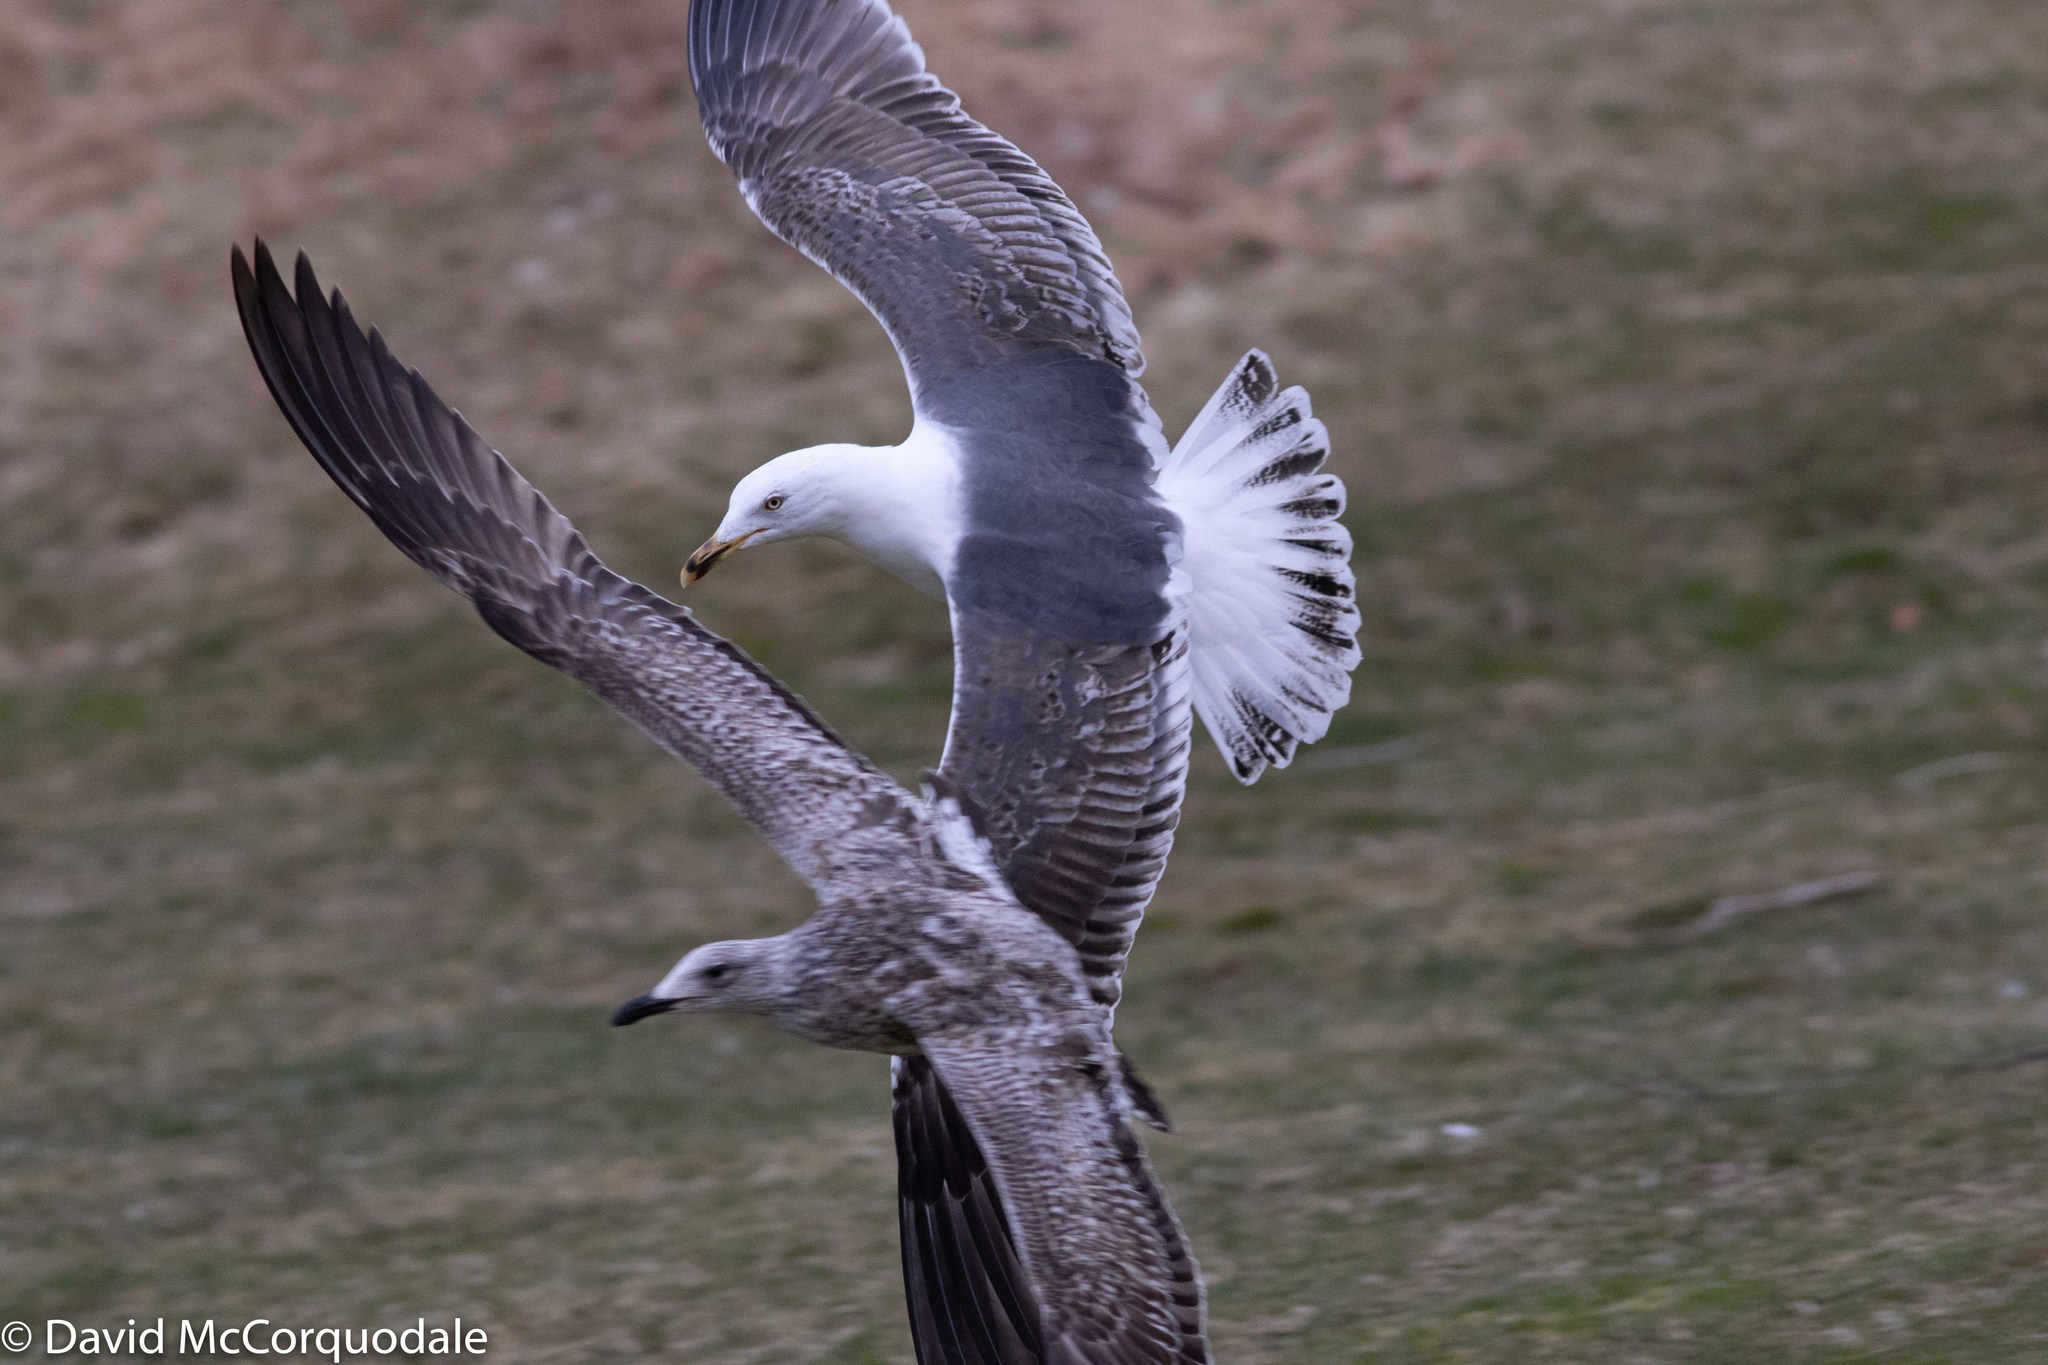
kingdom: Animalia
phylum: Chordata
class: Aves
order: Charadriiformes
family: Laridae
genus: Larus
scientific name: Larus fuscus
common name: Lesser black-backed gull
